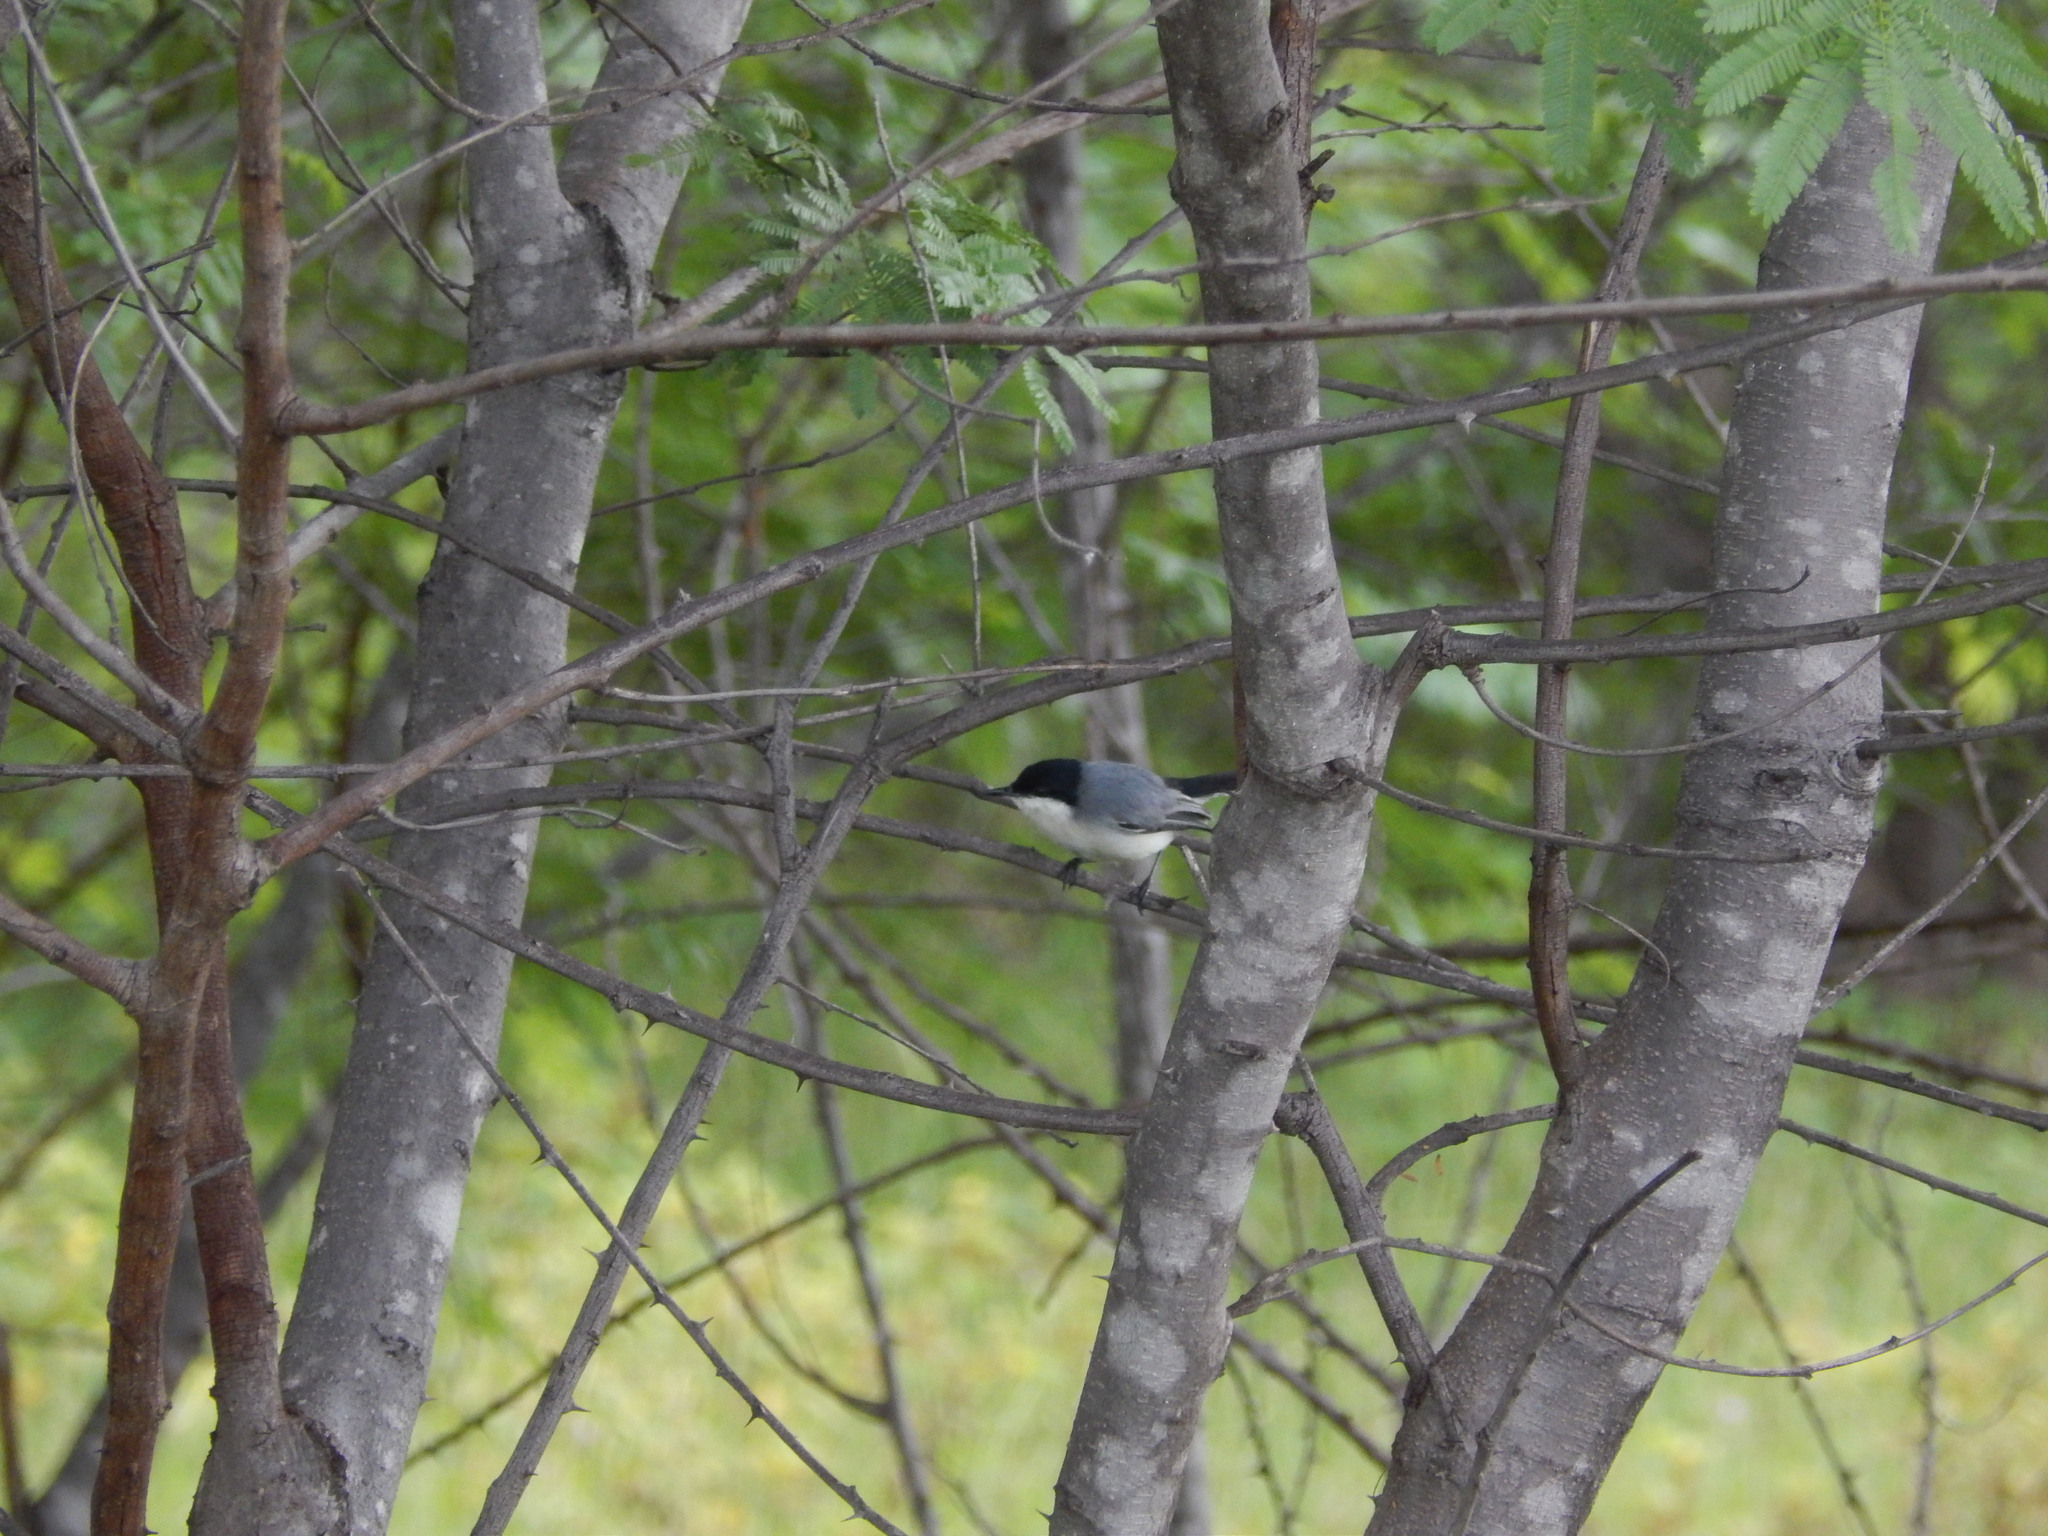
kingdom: Animalia
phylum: Chordata
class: Aves
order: Passeriformes
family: Polioptilidae
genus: Polioptila
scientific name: Polioptila plumbea
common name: Tropical gnatcatcher
